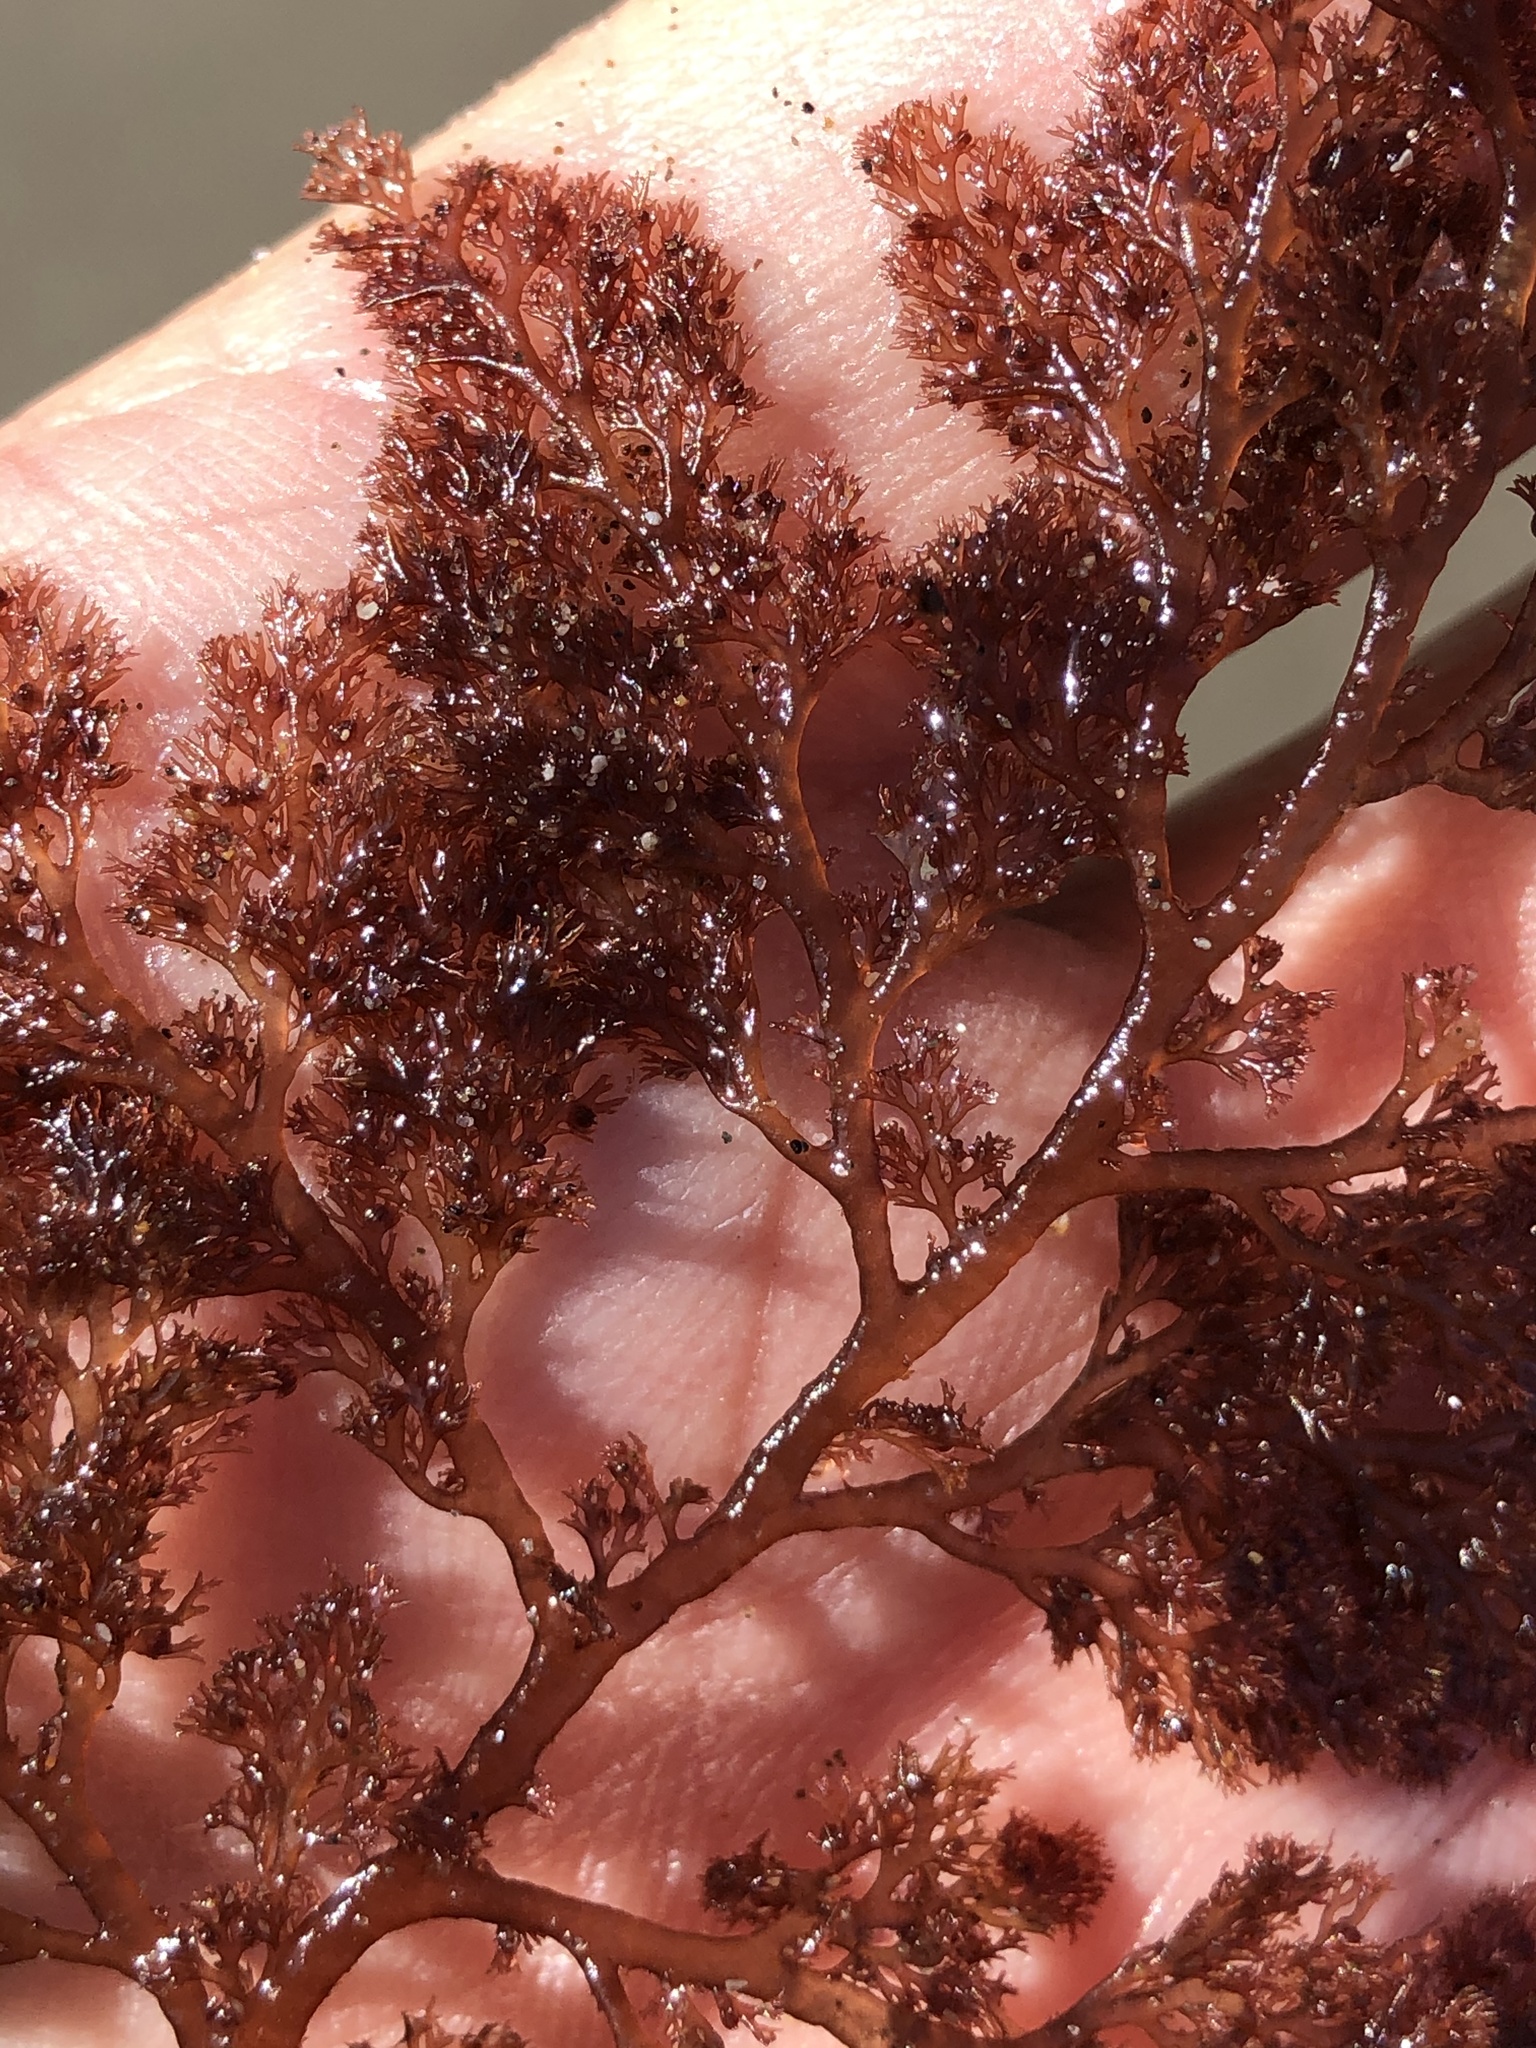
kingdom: Plantae
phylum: Rhodophyta
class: Florideophyceae
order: Ceramiales
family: Ceramiaceae
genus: Microcladia
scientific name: Microcladia coulteri
